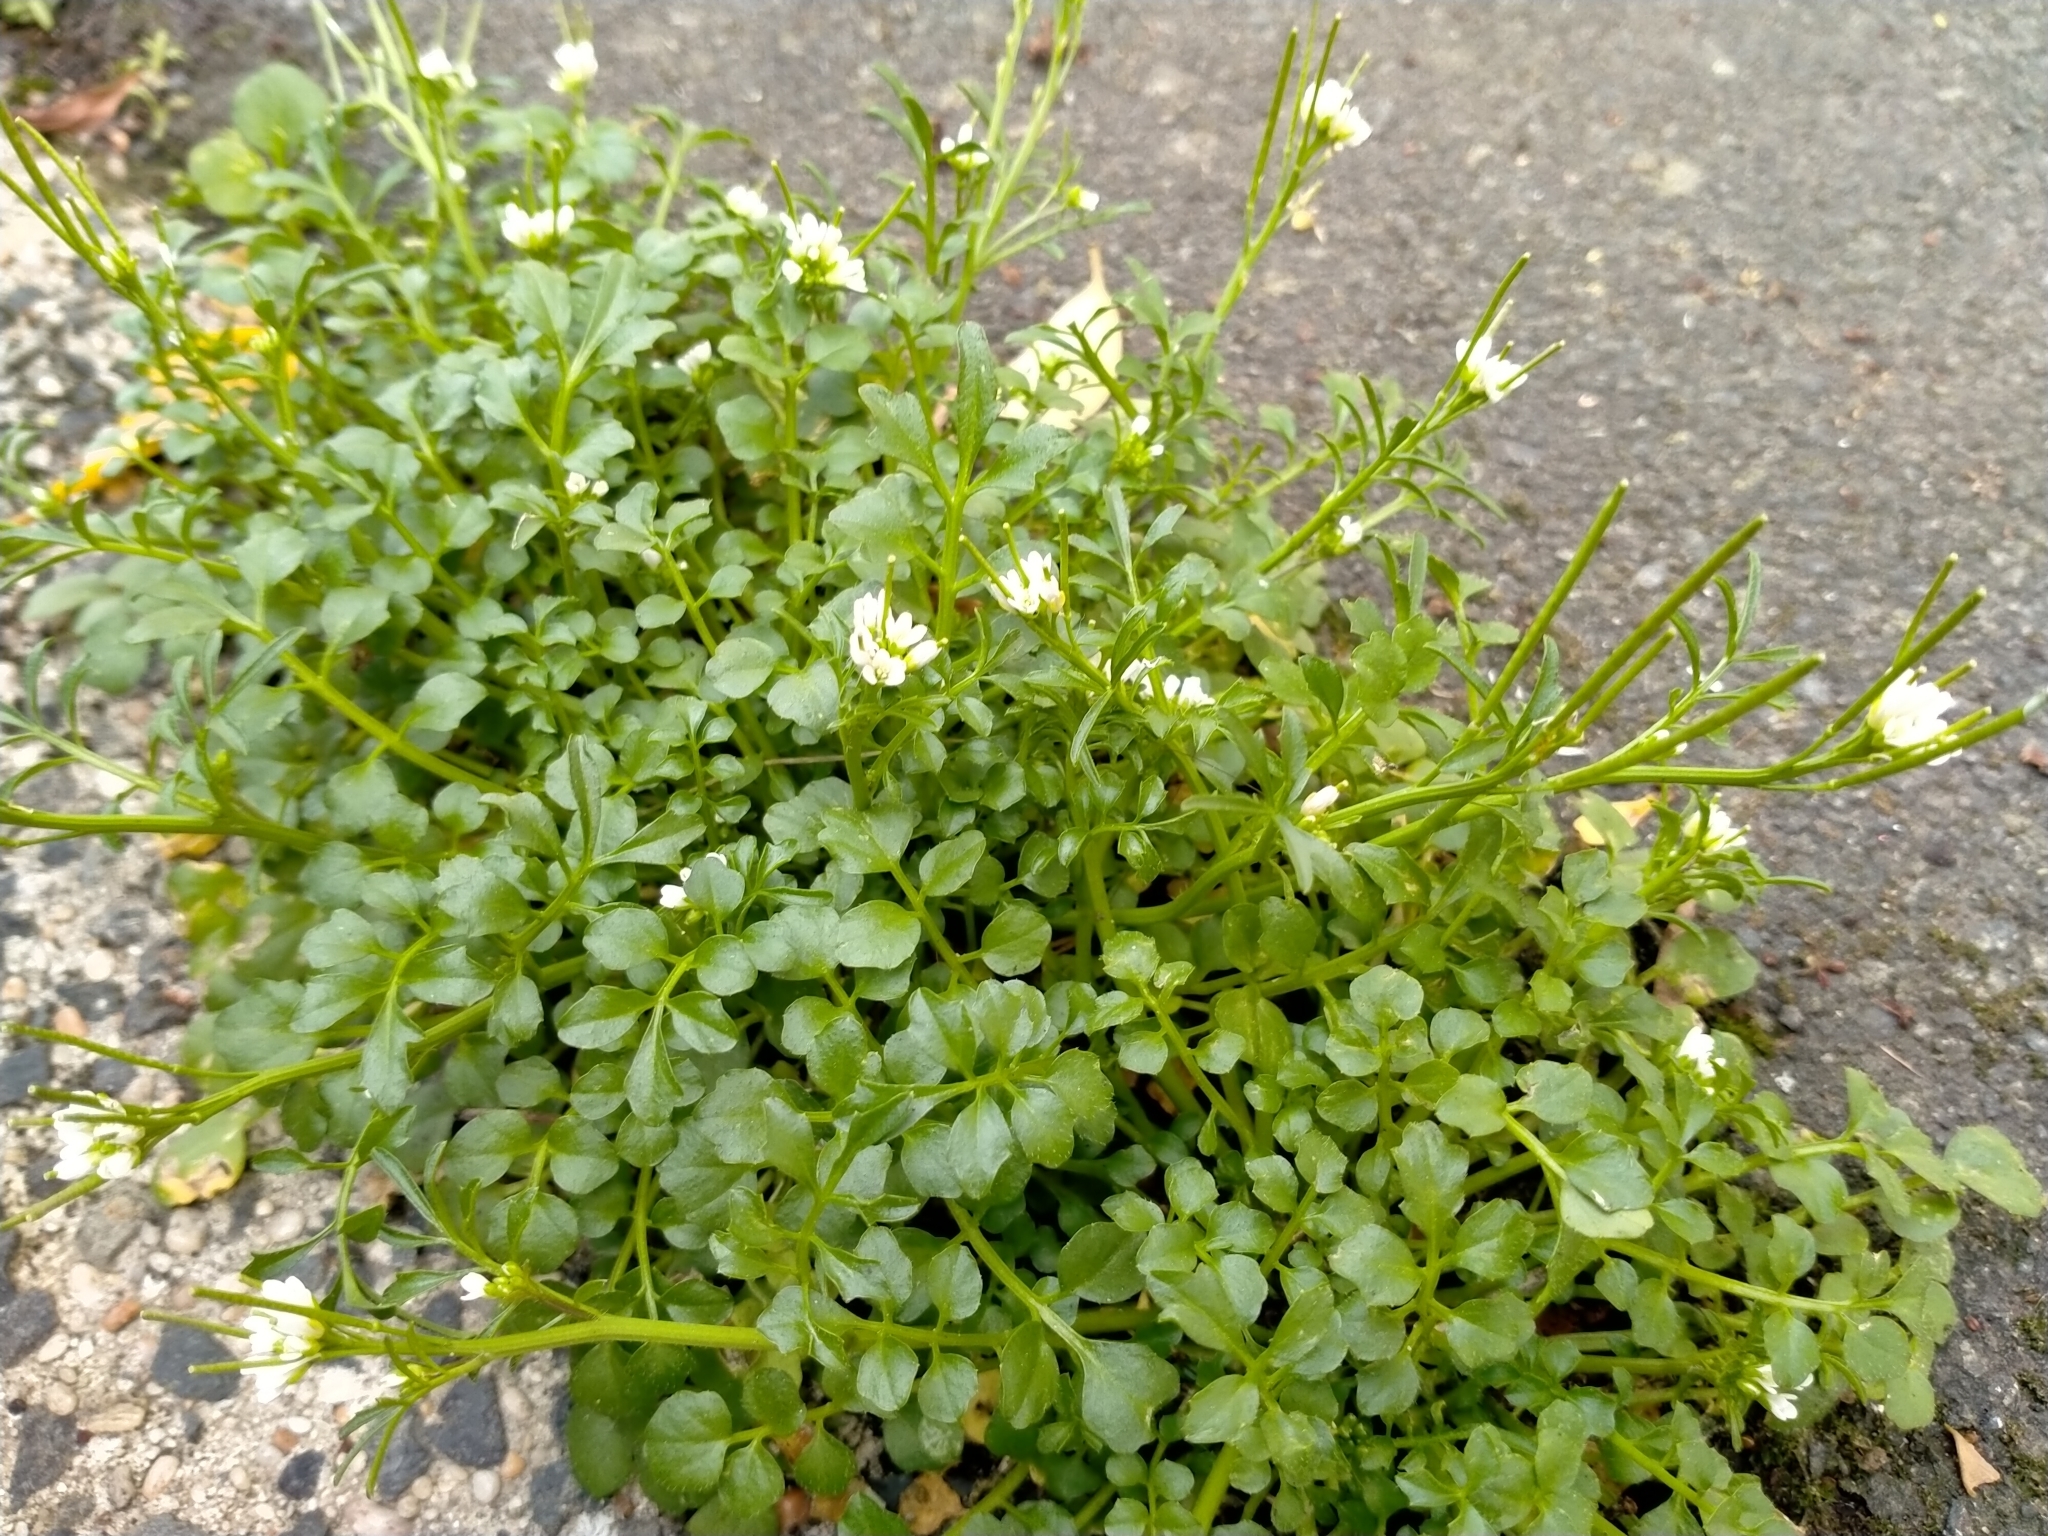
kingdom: Plantae
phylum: Tracheophyta
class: Magnoliopsida
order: Brassicales
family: Brassicaceae
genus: Cardamine
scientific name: Cardamine hirsuta
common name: Hairy bittercress
